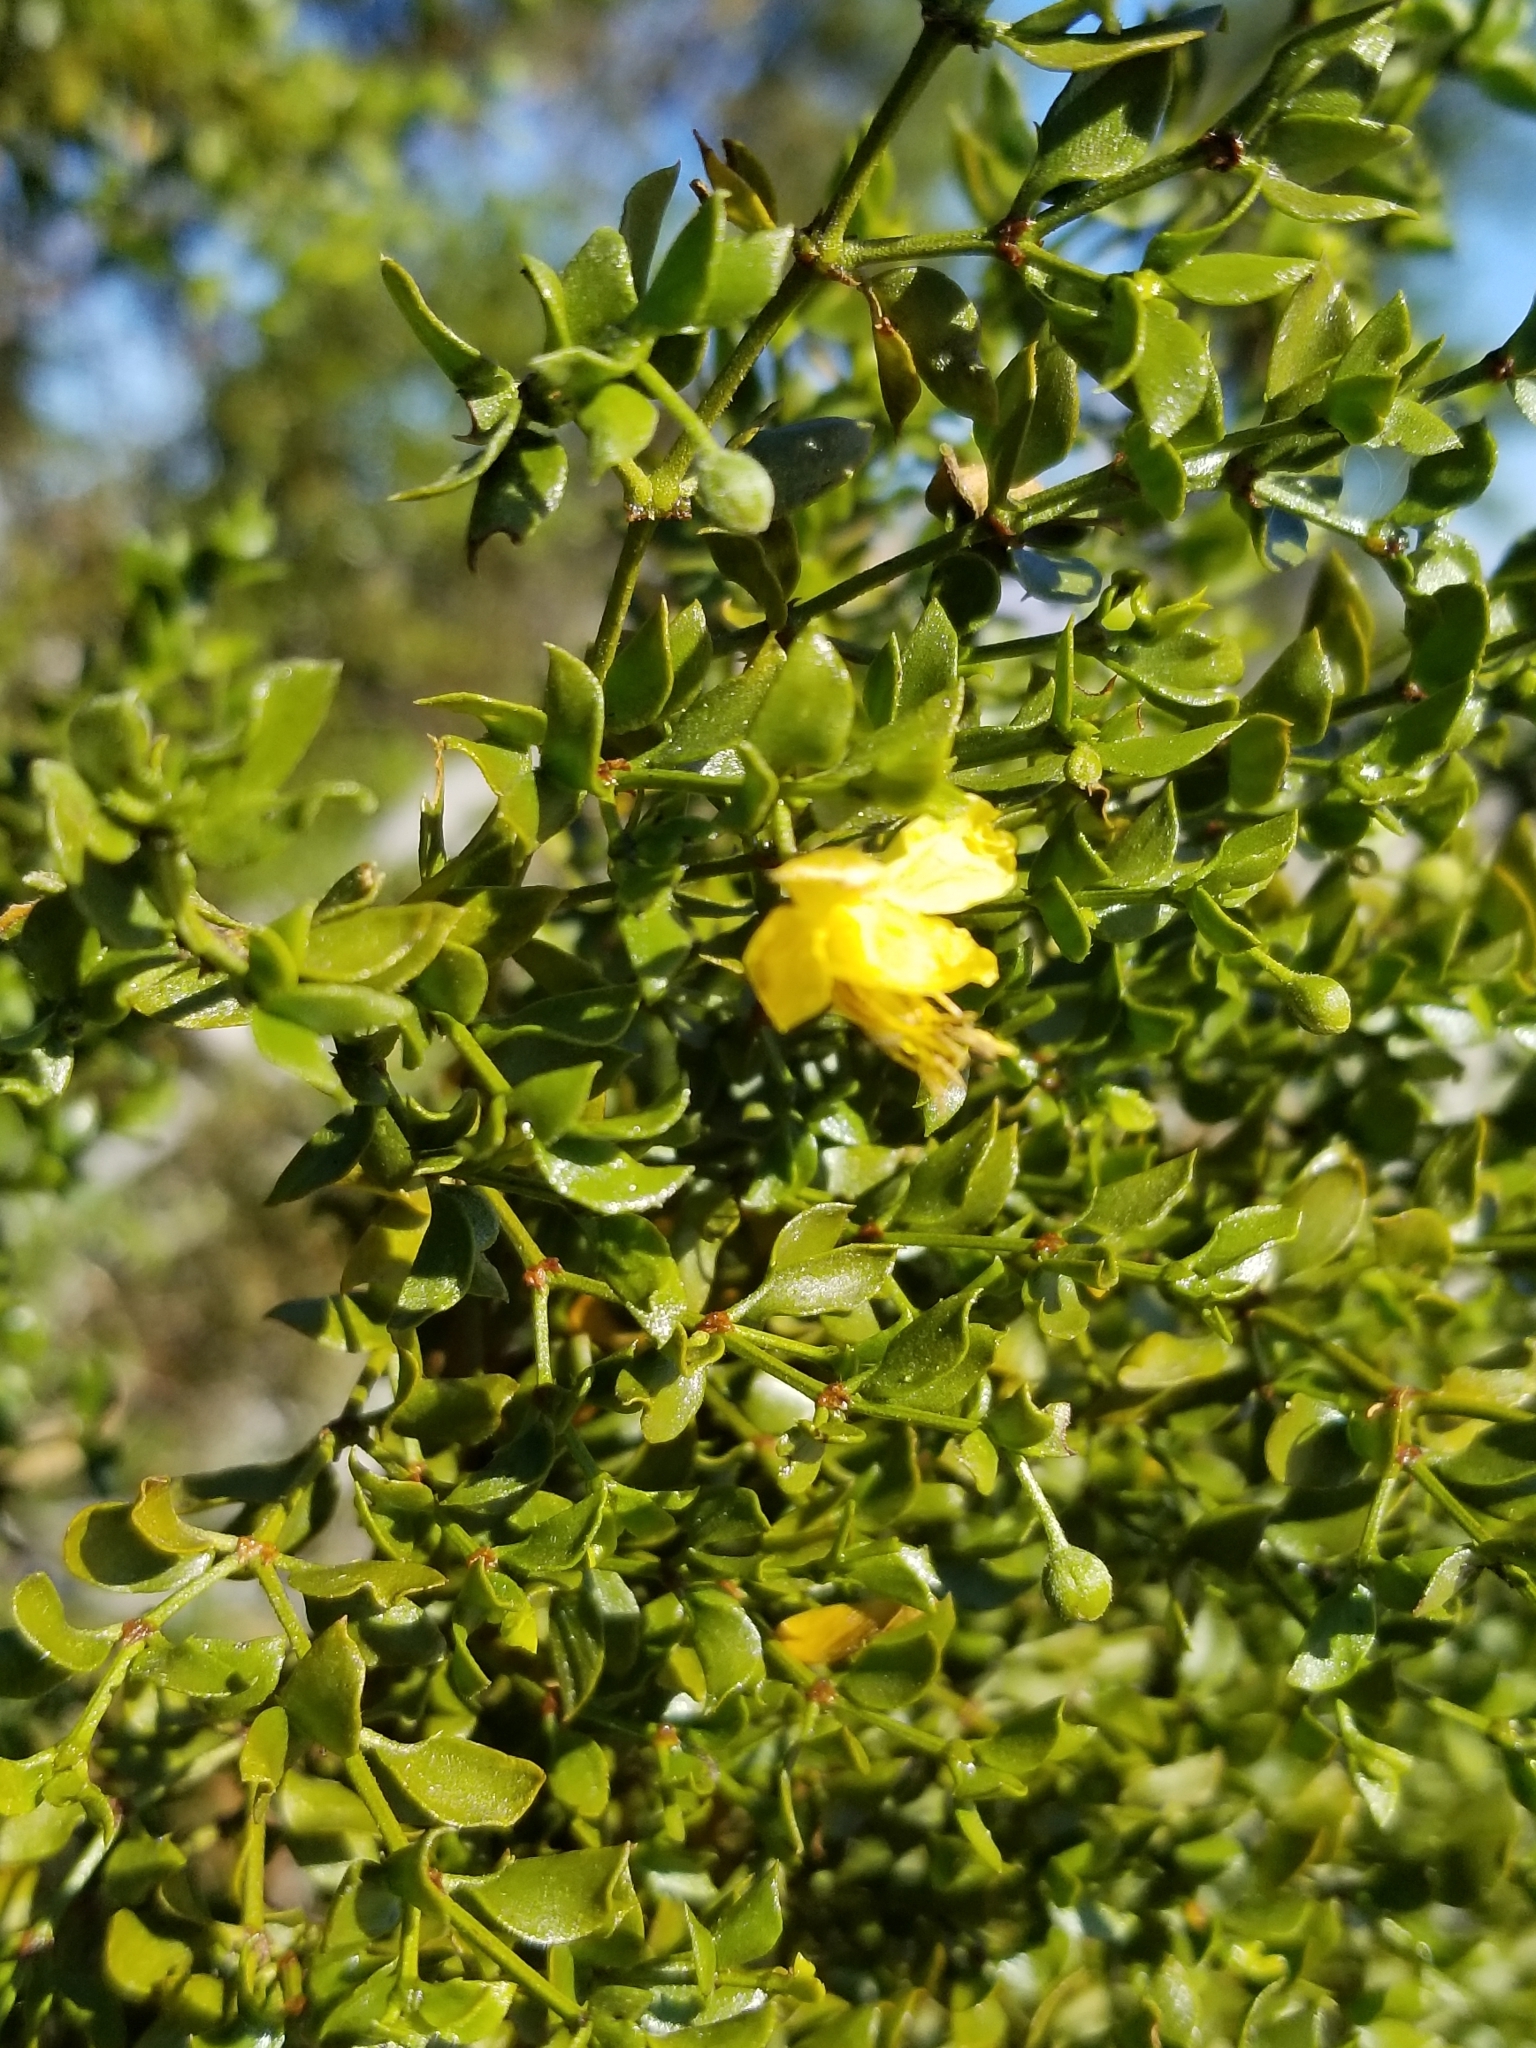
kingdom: Plantae
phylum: Tracheophyta
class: Magnoliopsida
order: Zygophyllales
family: Zygophyllaceae
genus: Larrea
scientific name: Larrea tridentata
